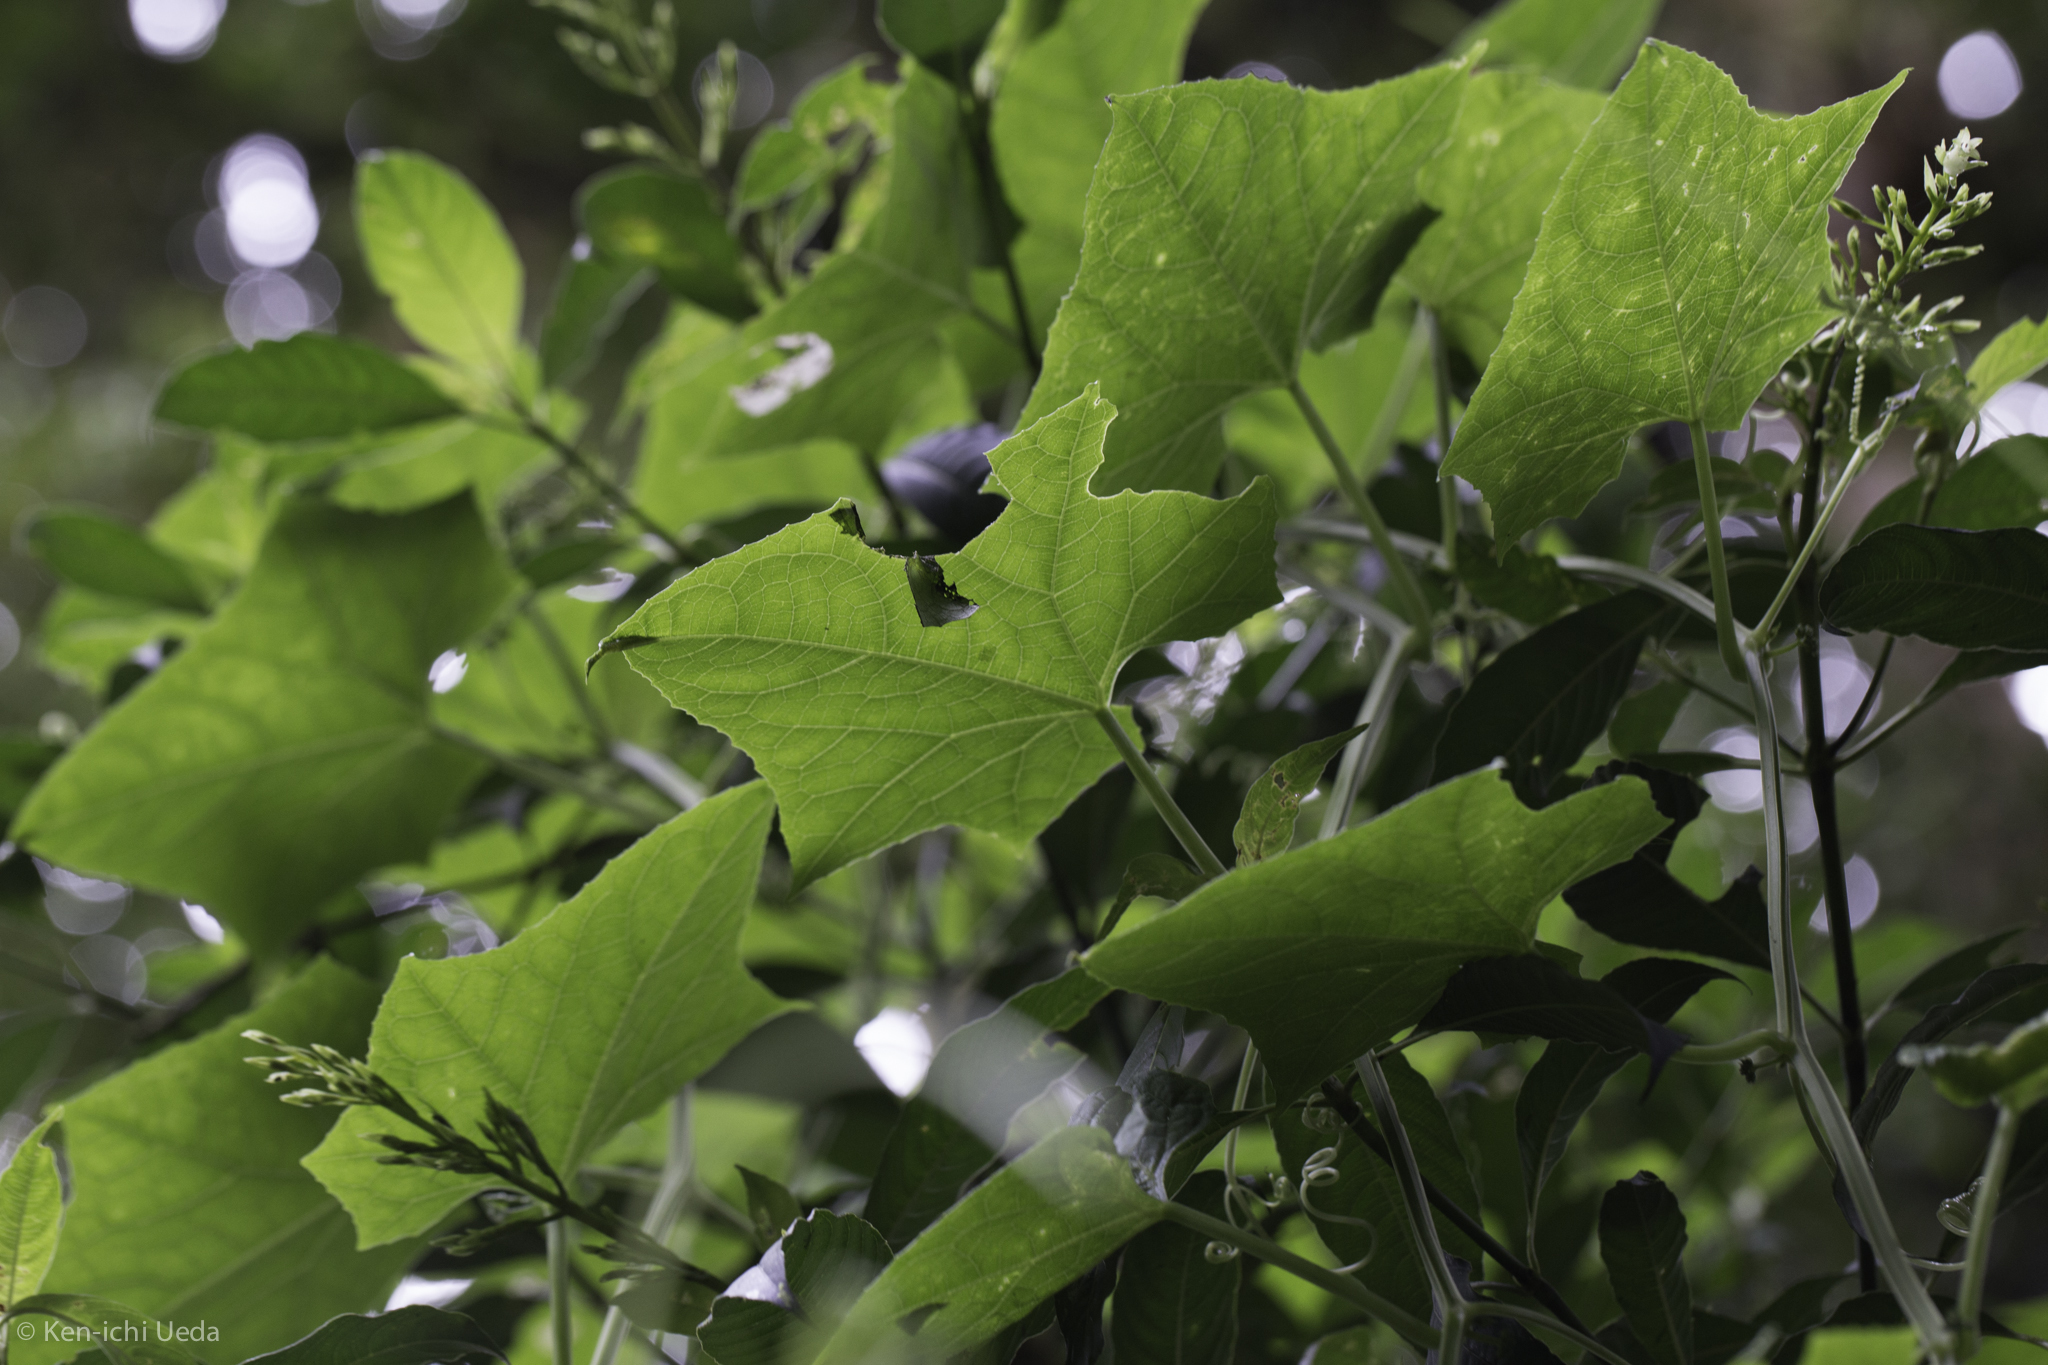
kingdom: Plantae
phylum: Tracheophyta
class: Magnoliopsida
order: Cucurbitales
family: Cucurbitaceae
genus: Hanburia
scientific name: Hanburia oerstedii
